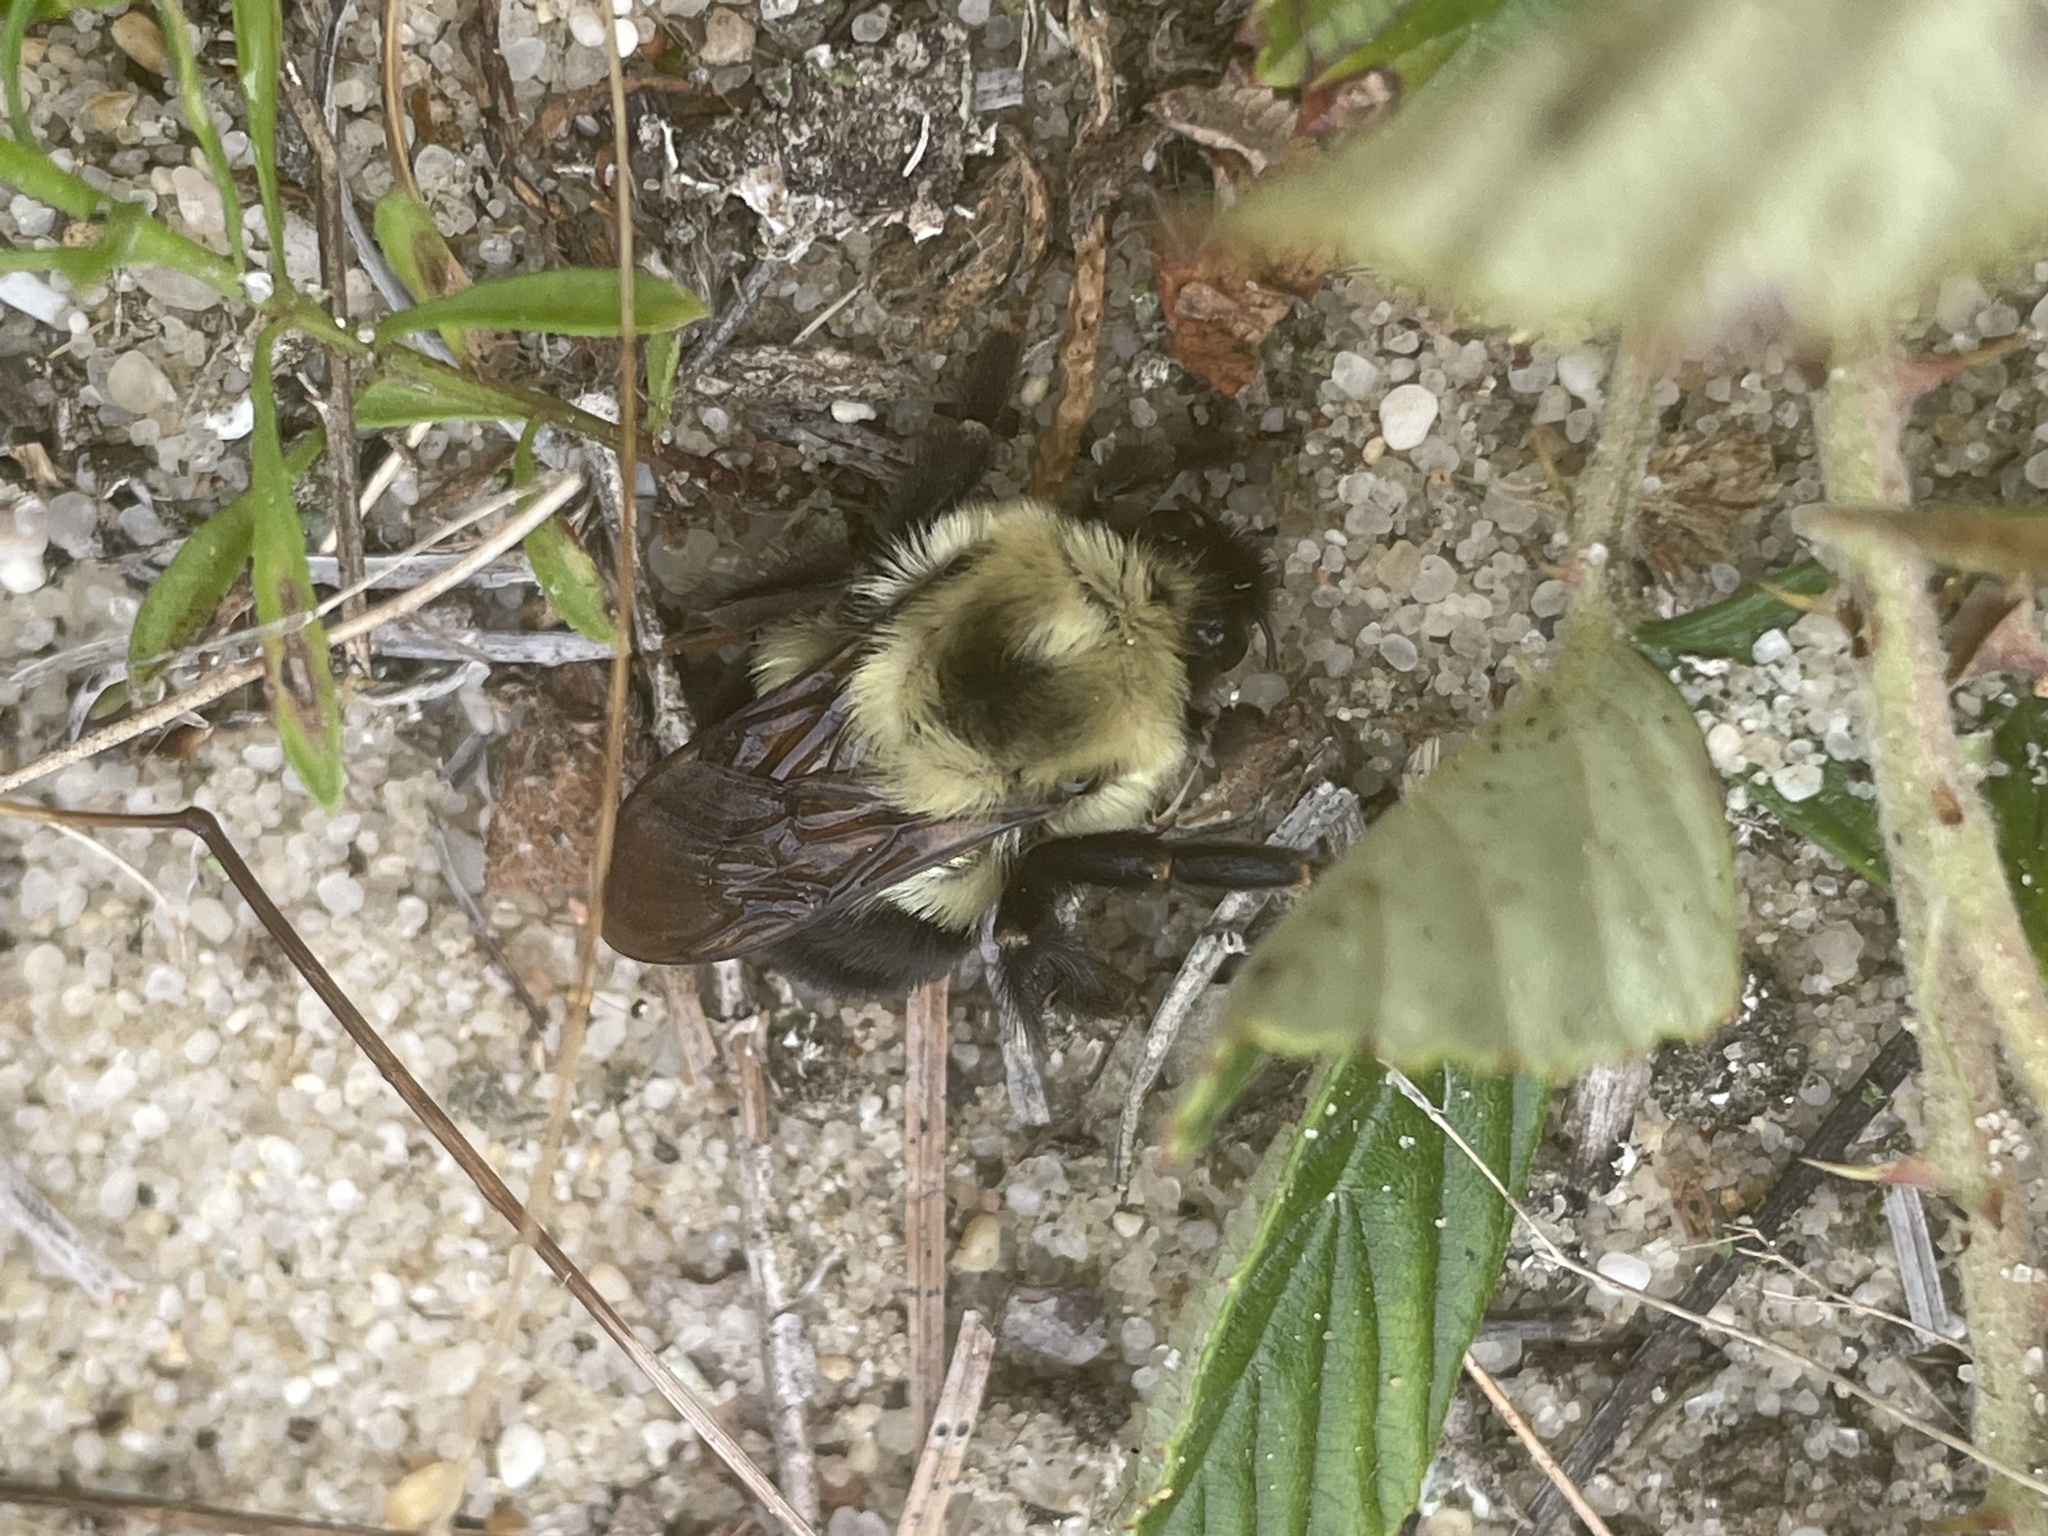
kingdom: Animalia
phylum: Arthropoda
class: Insecta
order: Hymenoptera
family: Apidae
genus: Bombus
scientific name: Bombus bimaculatus
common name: Two-spotted bumble bee
